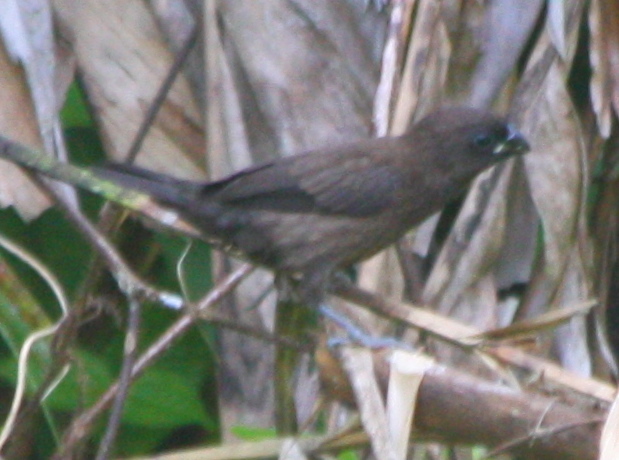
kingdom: Animalia
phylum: Chordata
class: Aves
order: Passeriformes
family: Estrildidae
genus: Lonchura
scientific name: Lonchura fuscans
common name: Dusky munia
